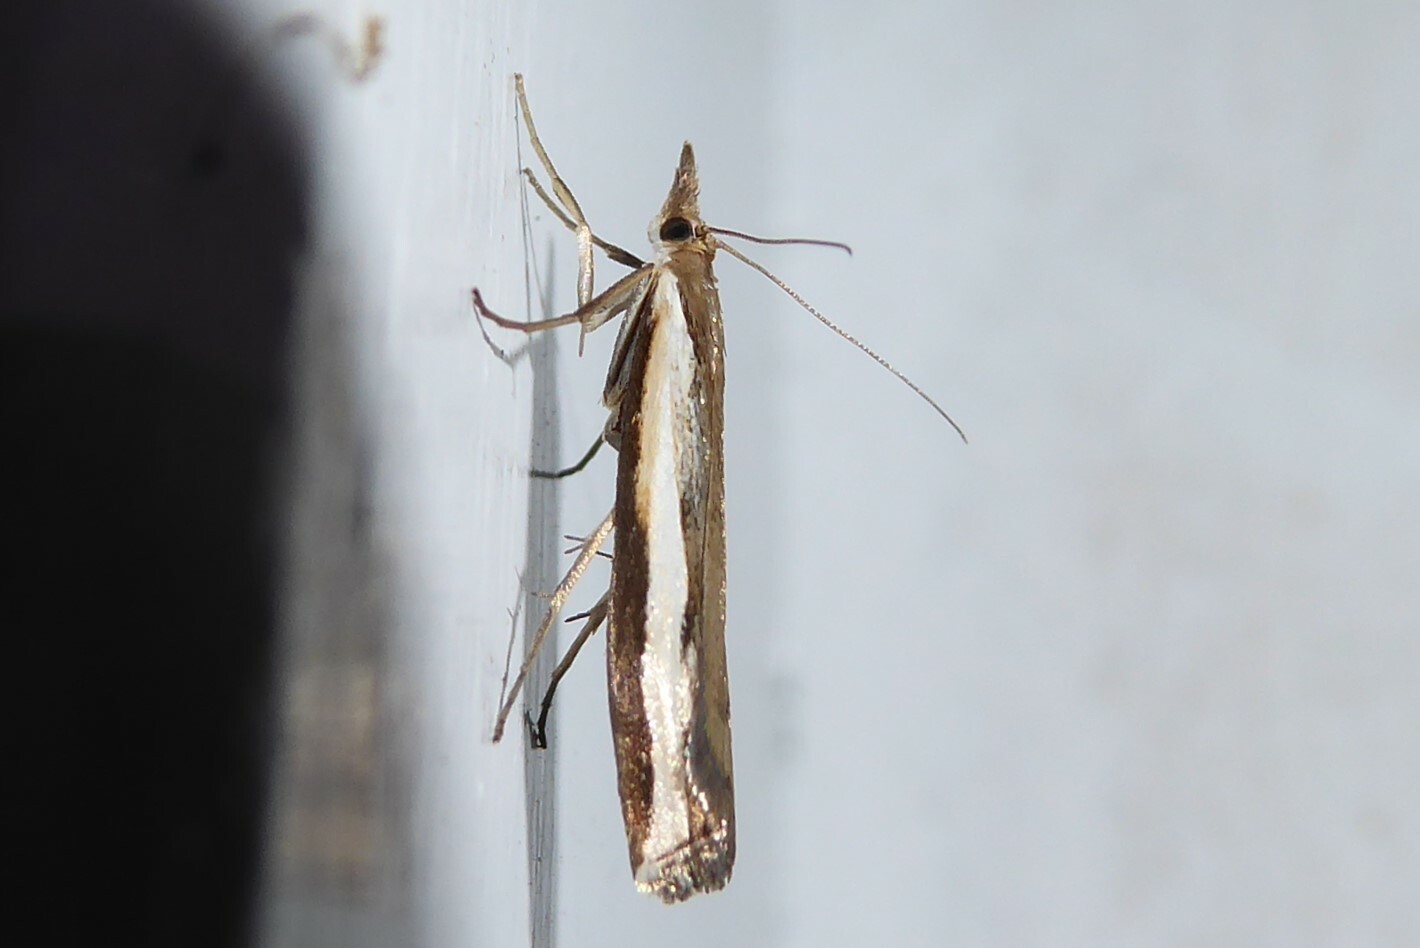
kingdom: Animalia
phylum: Arthropoda
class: Insecta
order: Lepidoptera
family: Crambidae
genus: Orocrambus
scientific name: Orocrambus flexuosellus
